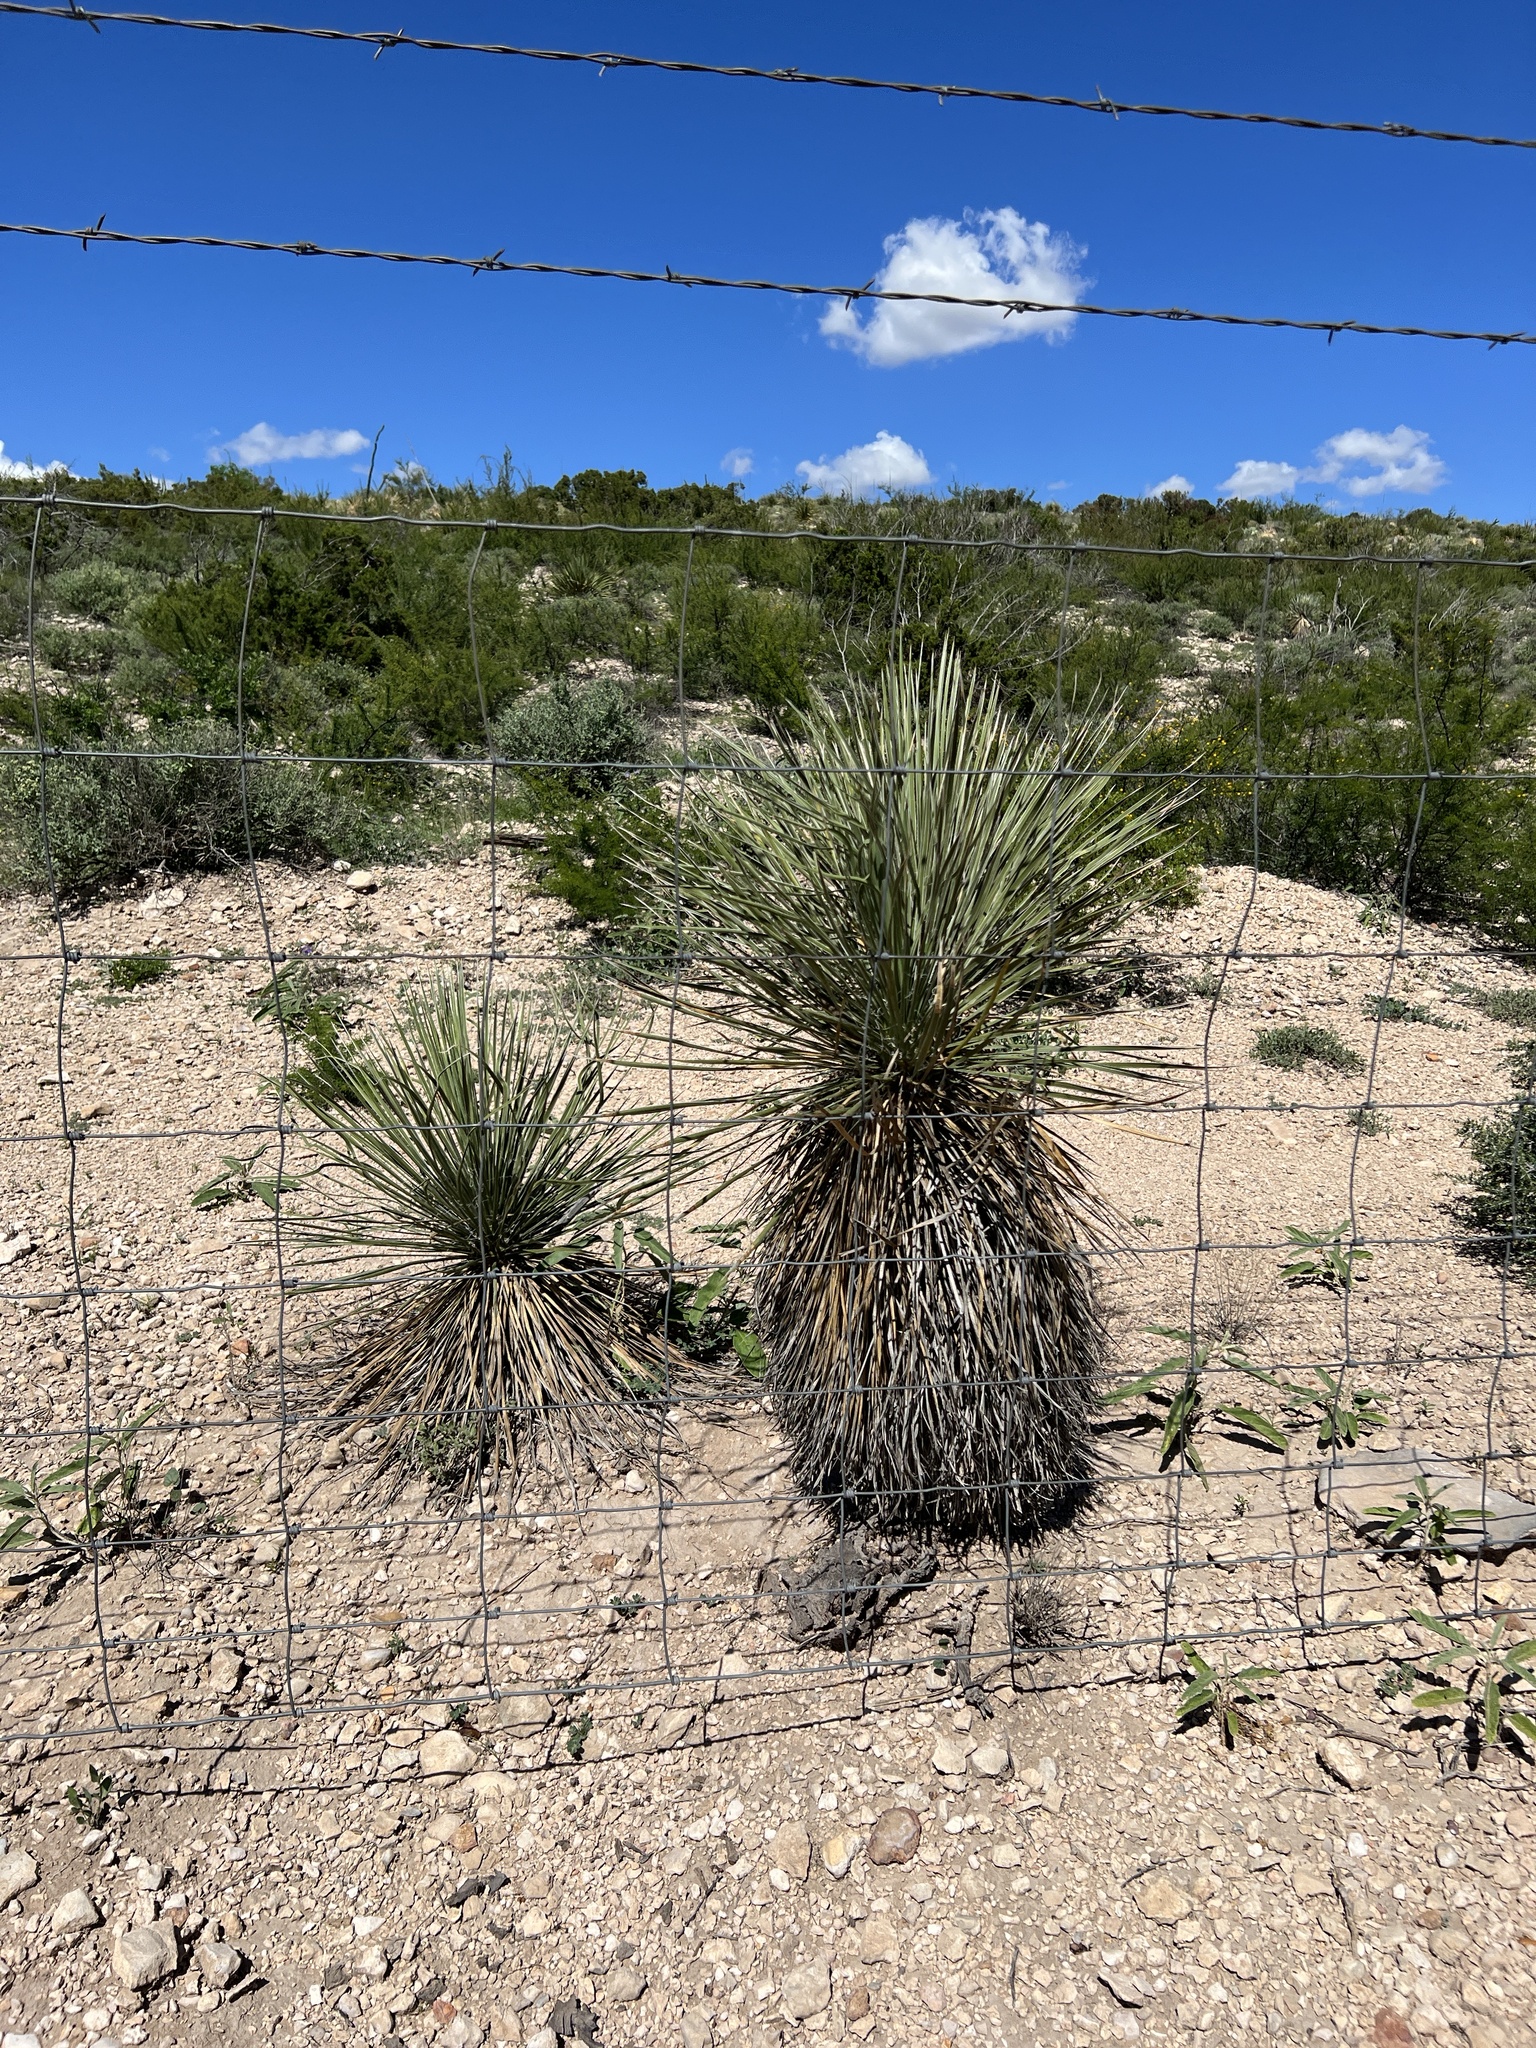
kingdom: Plantae
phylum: Tracheophyta
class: Liliopsida
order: Asparagales
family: Asparagaceae
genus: Yucca
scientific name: Yucca elata
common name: Palmella
